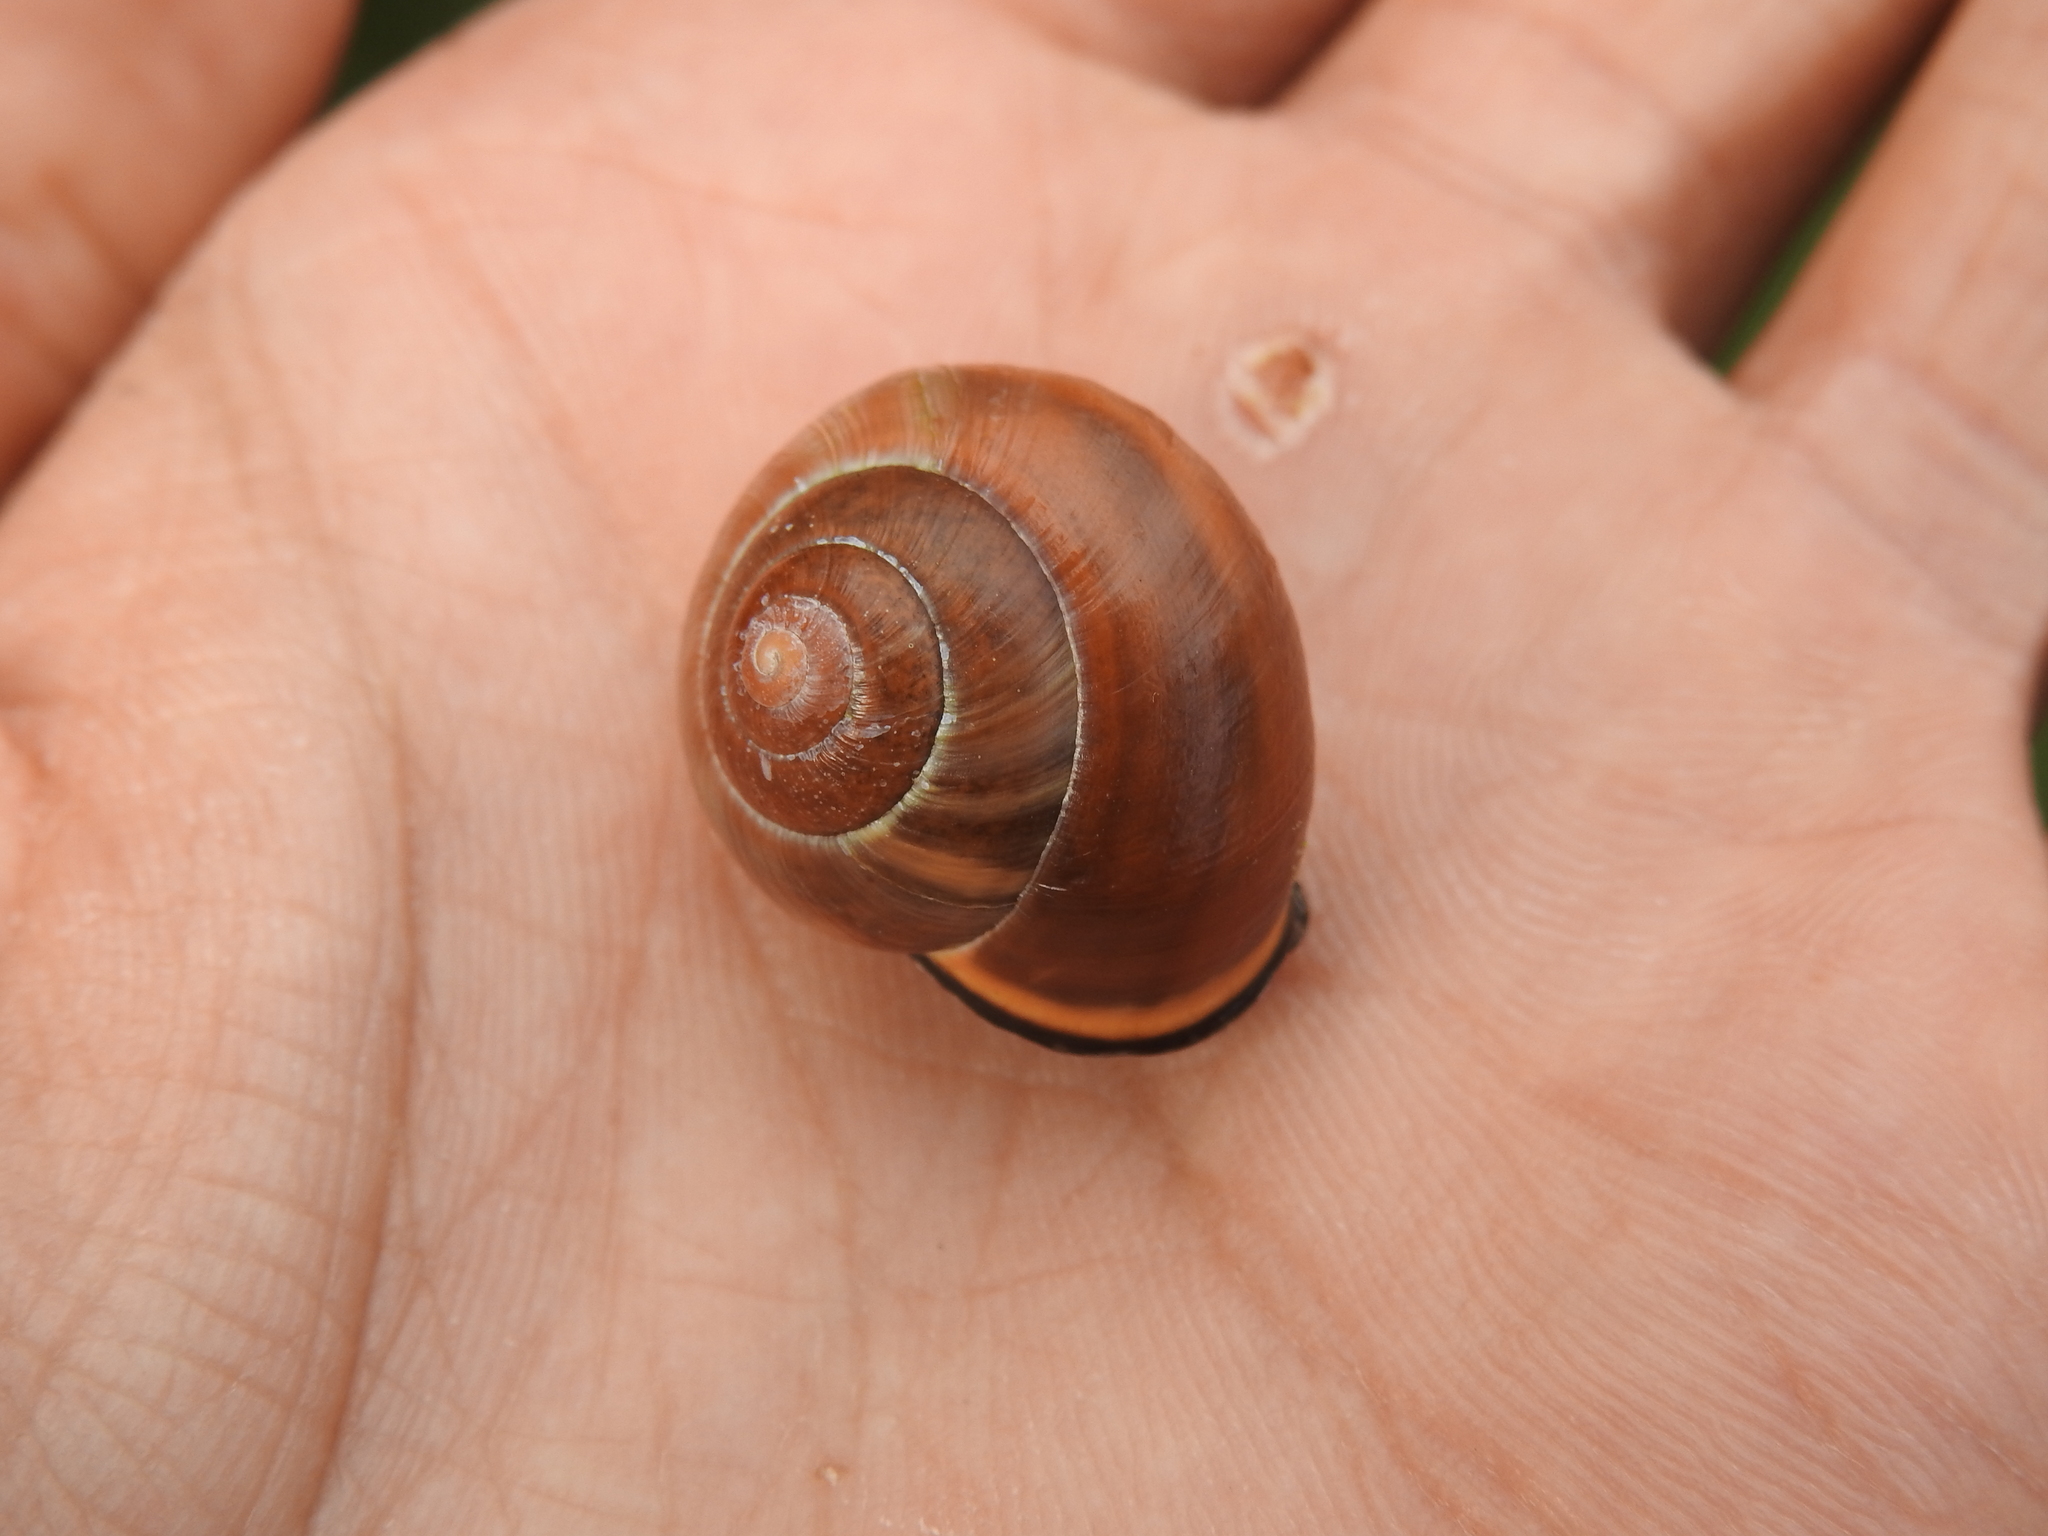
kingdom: Animalia
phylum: Mollusca
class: Gastropoda
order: Stylommatophora
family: Helicidae
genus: Cepaea
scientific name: Cepaea nemoralis
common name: Grovesnail
